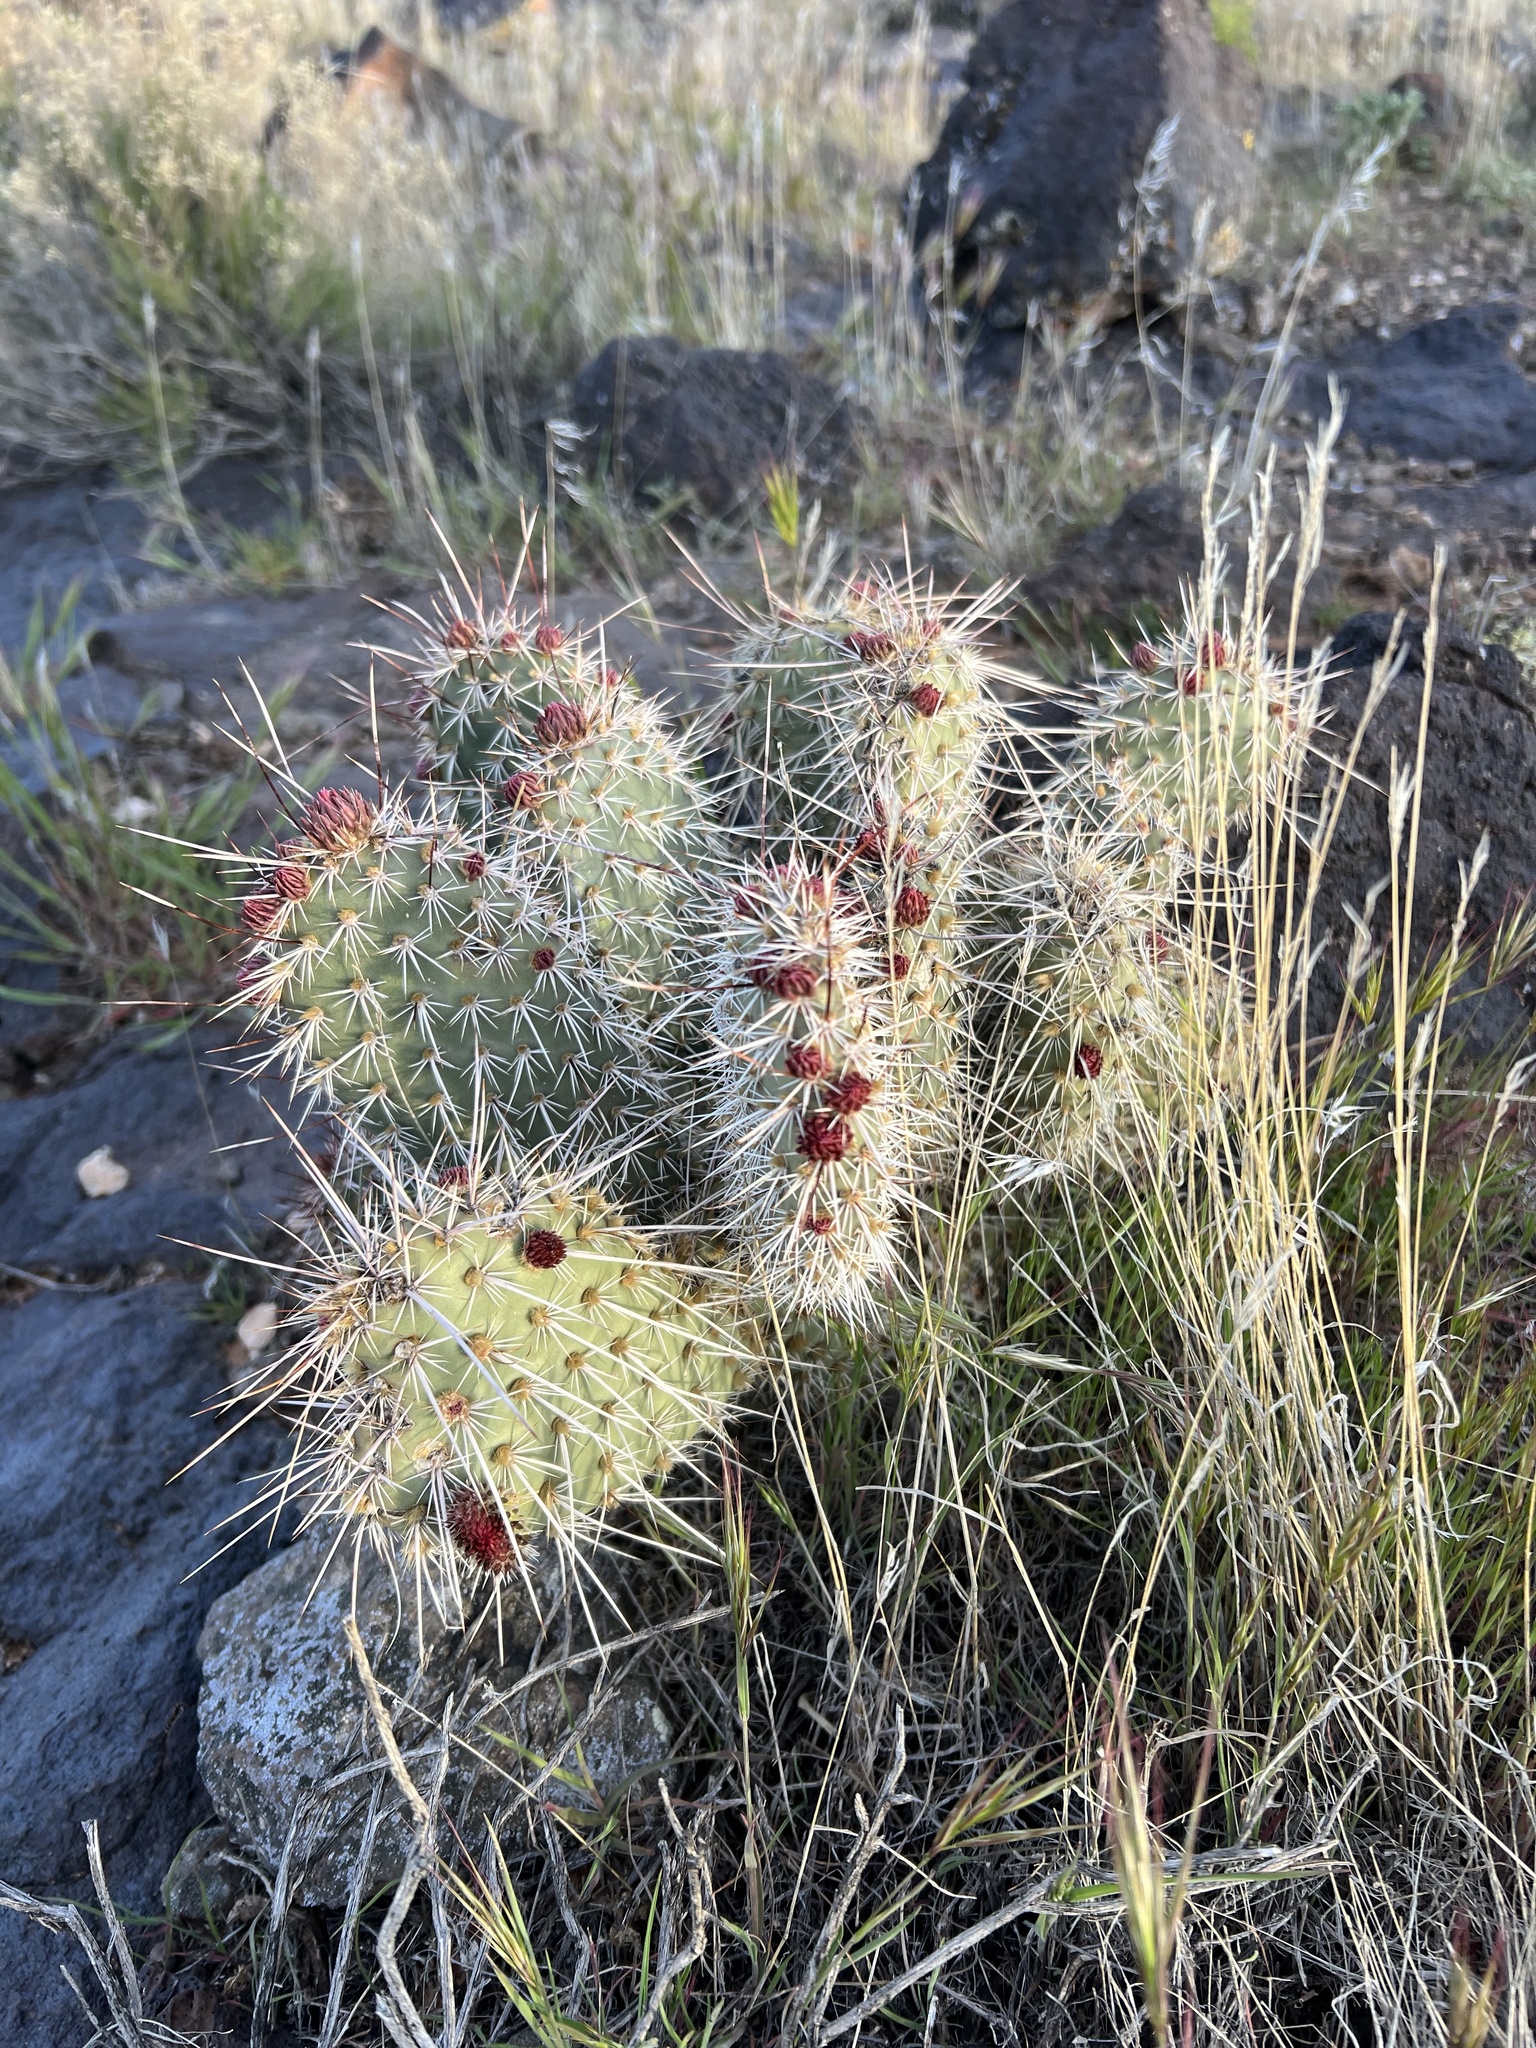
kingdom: Plantae
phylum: Tracheophyta
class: Magnoliopsida
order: Caryophyllales
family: Cactaceae
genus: Opuntia
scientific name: Opuntia polyacantha
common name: Plains prickly-pear
